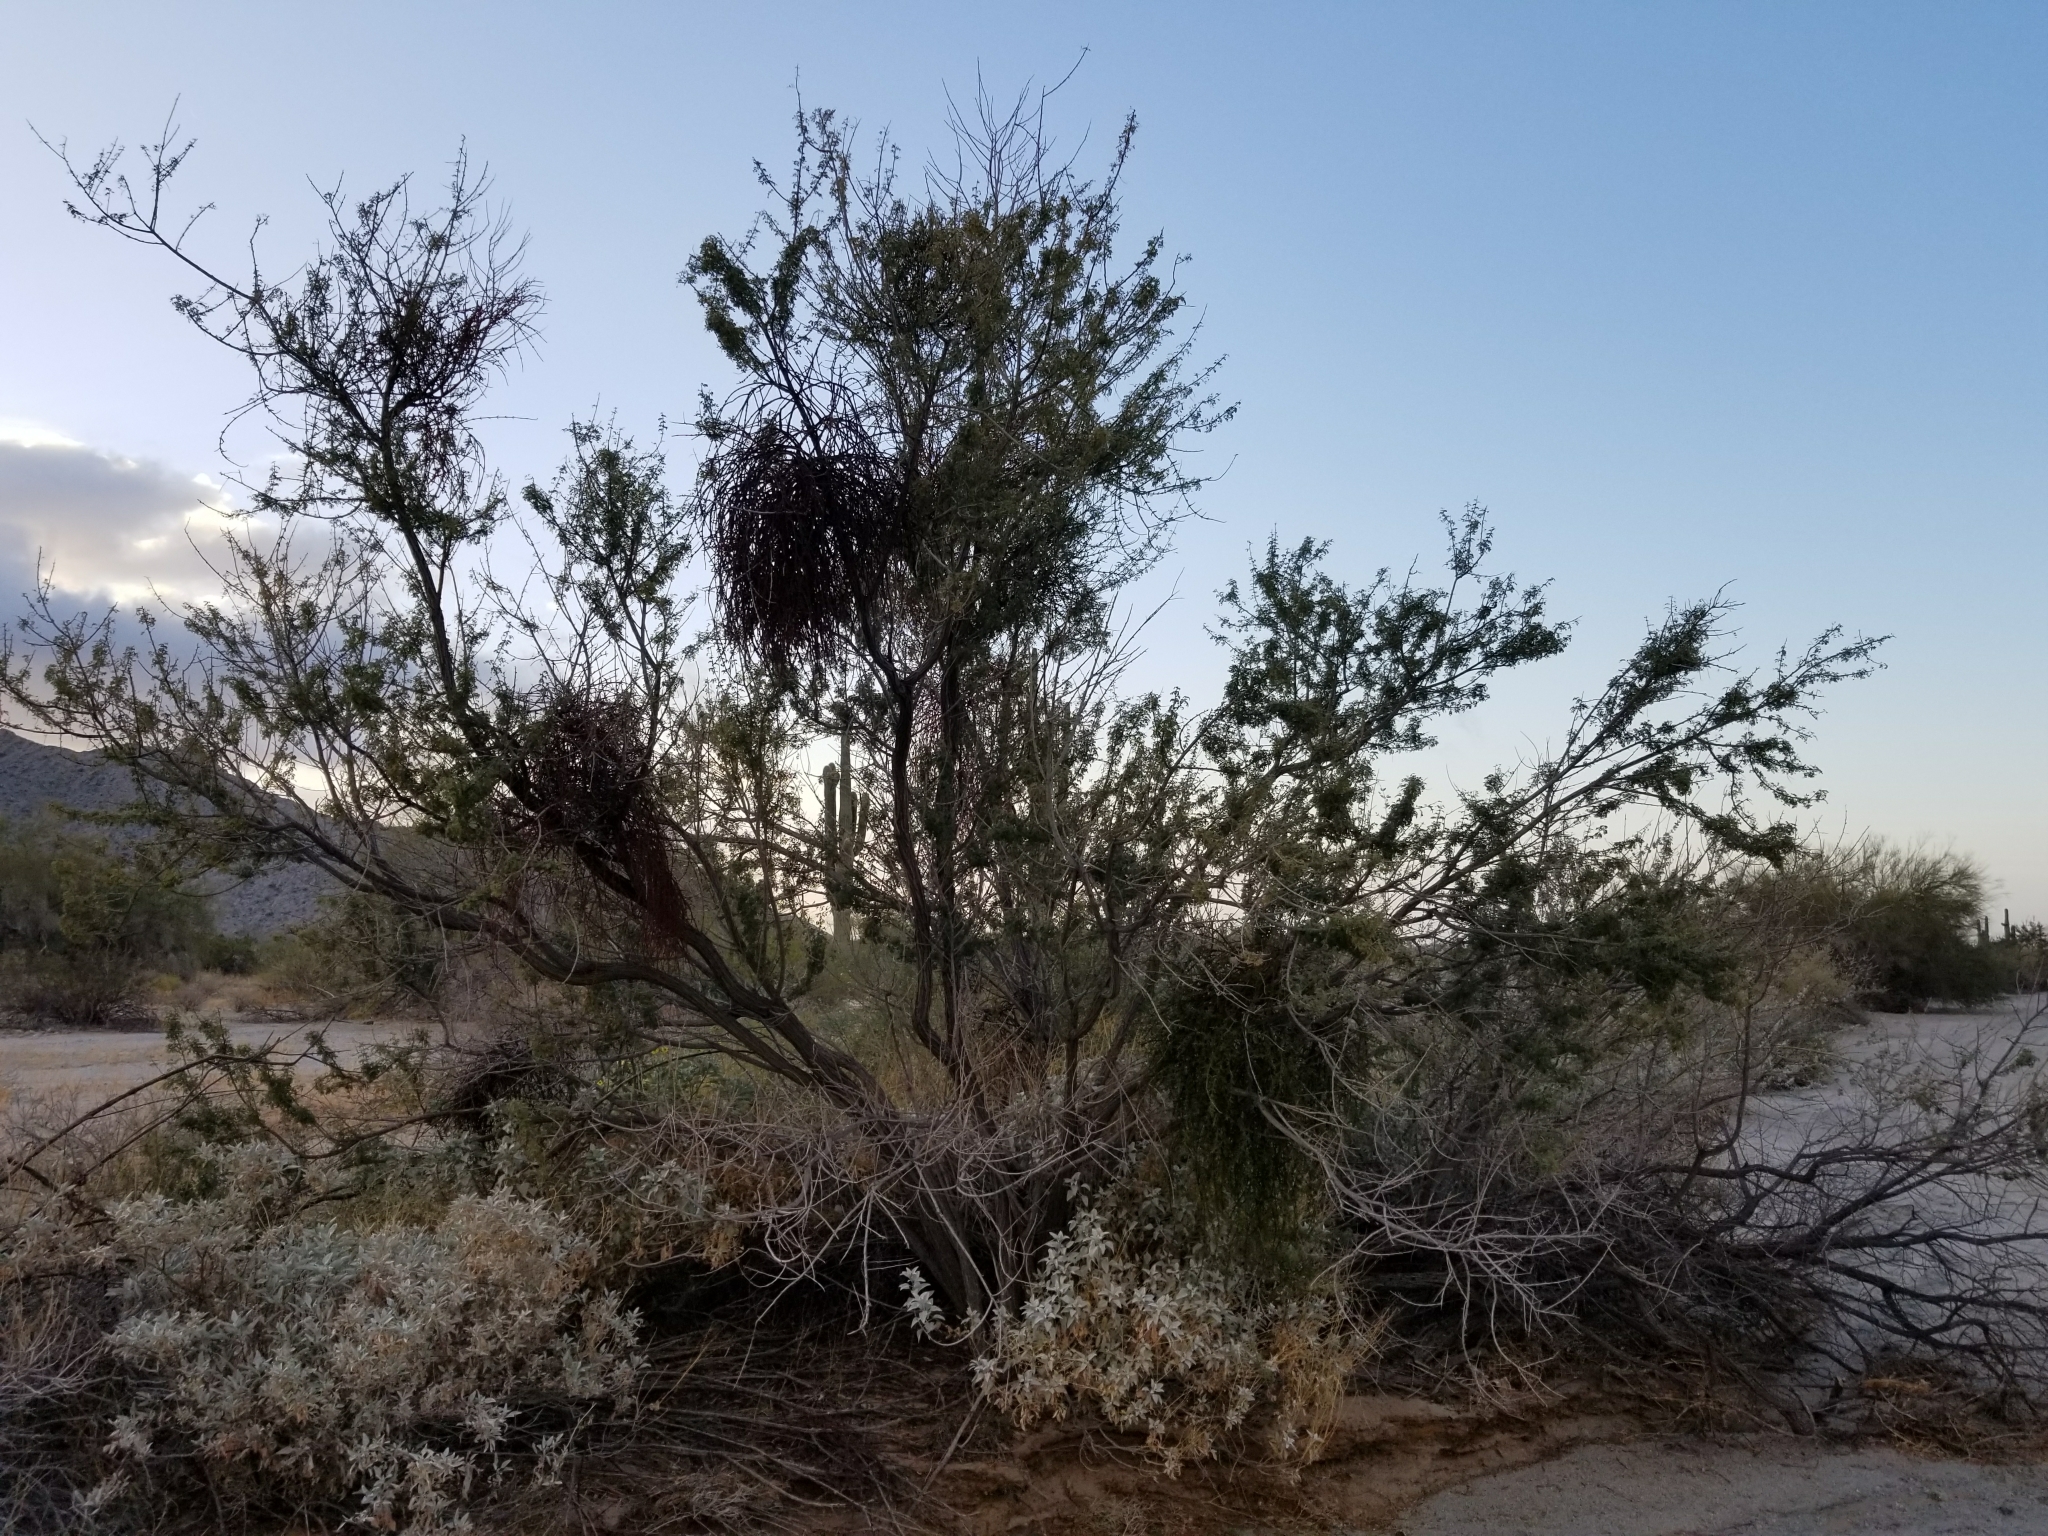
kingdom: Plantae
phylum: Tracheophyta
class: Magnoliopsida
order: Fabales
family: Fabaceae
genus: Senegalia
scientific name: Senegalia greggii
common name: Texas-mimosa
